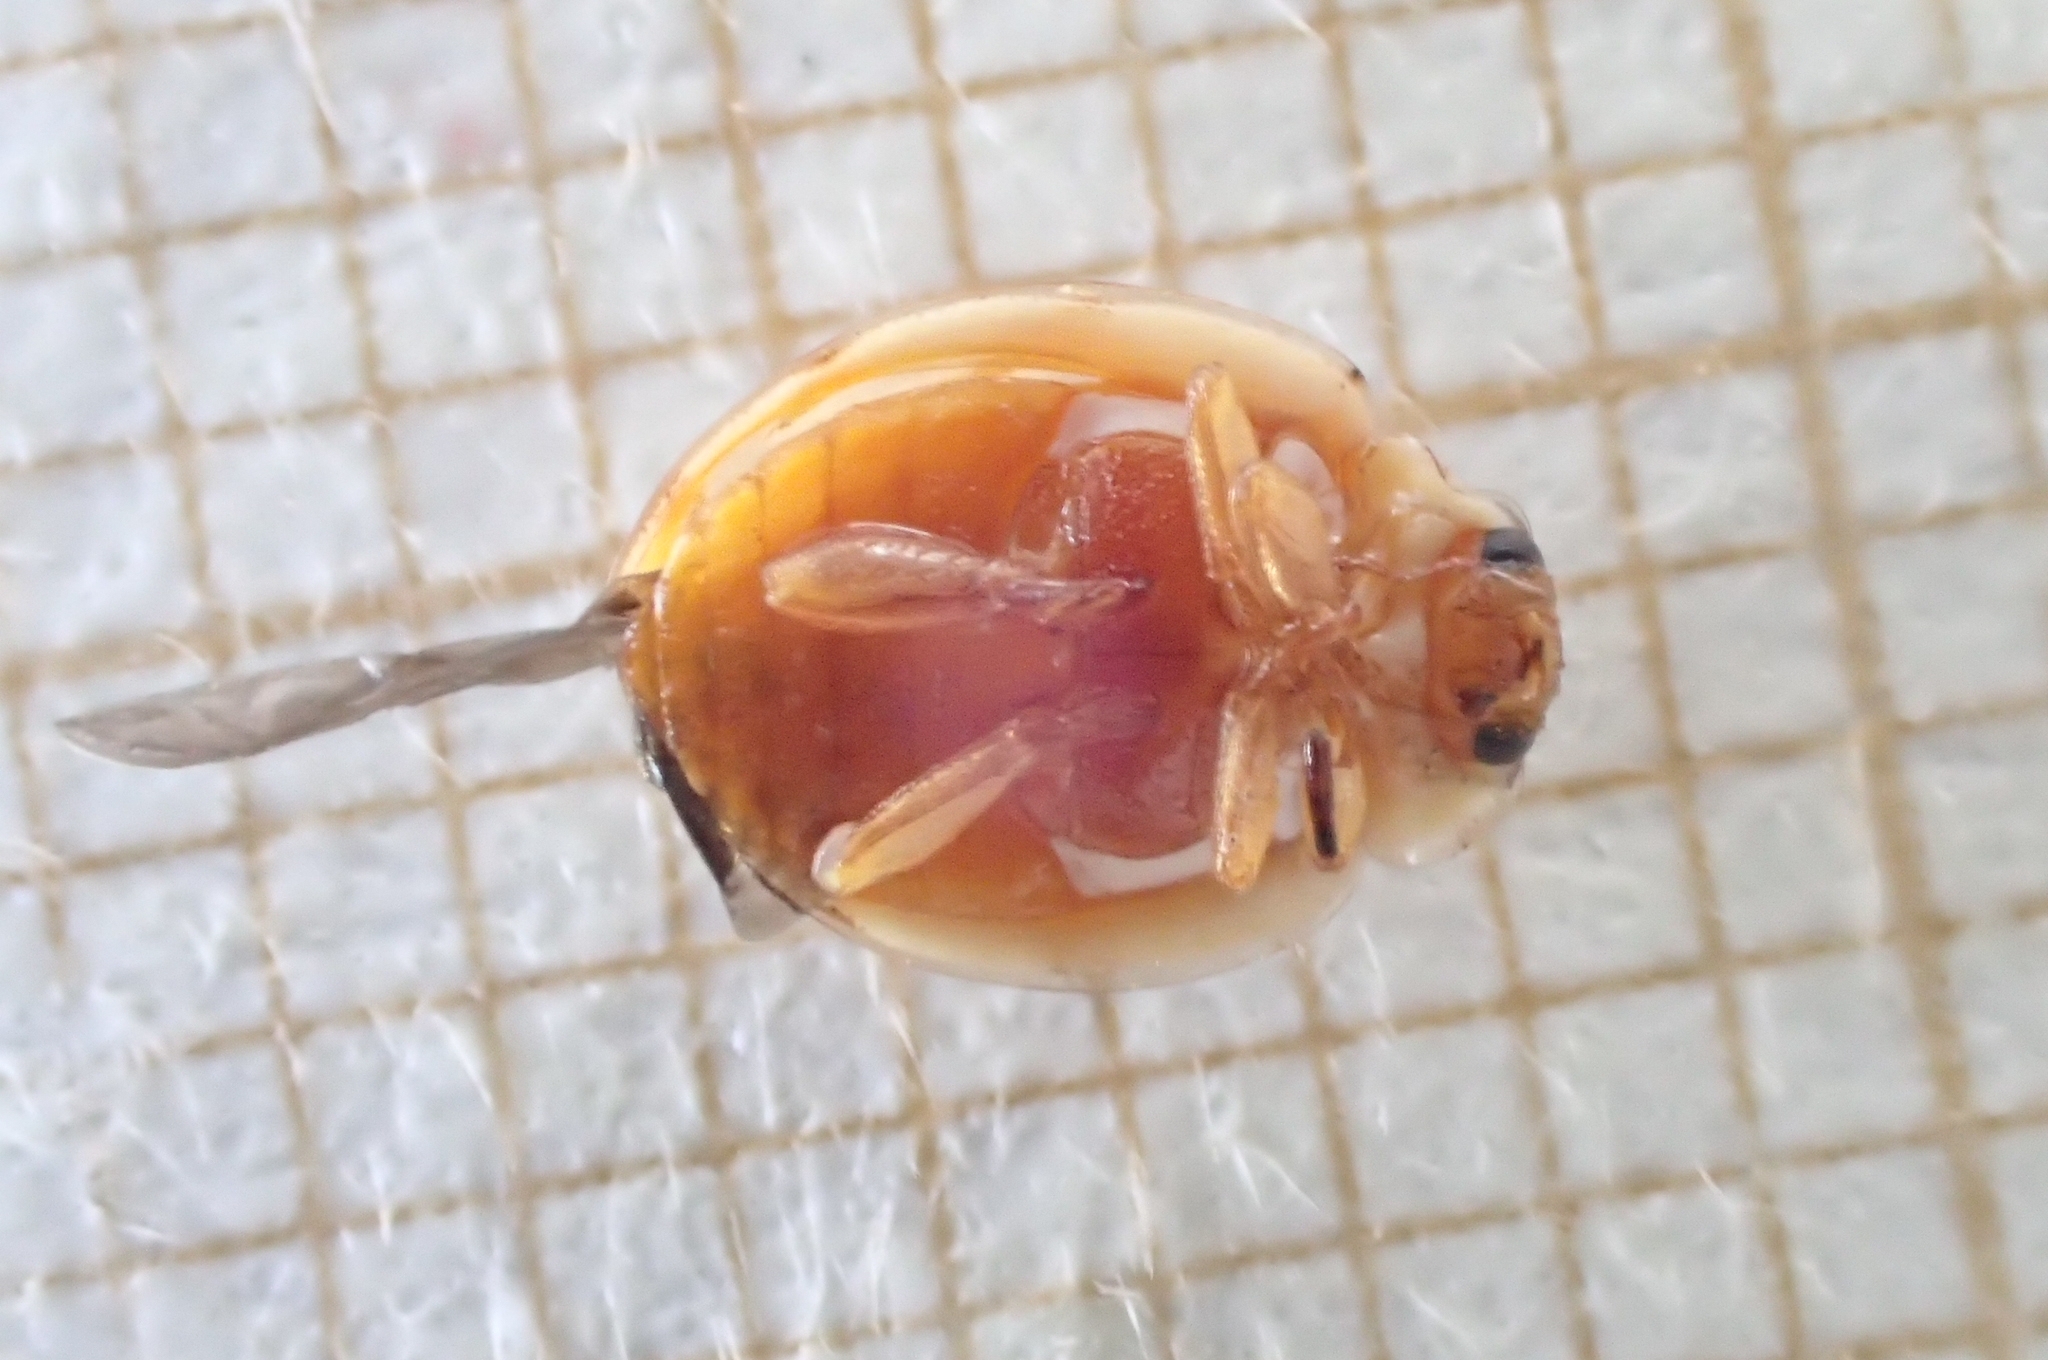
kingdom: Animalia
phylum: Arthropoda
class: Insecta
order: Coleoptera
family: Coccinellidae
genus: Myrrha
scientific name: Myrrha octodecimguttata
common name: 18-spot ladybird
